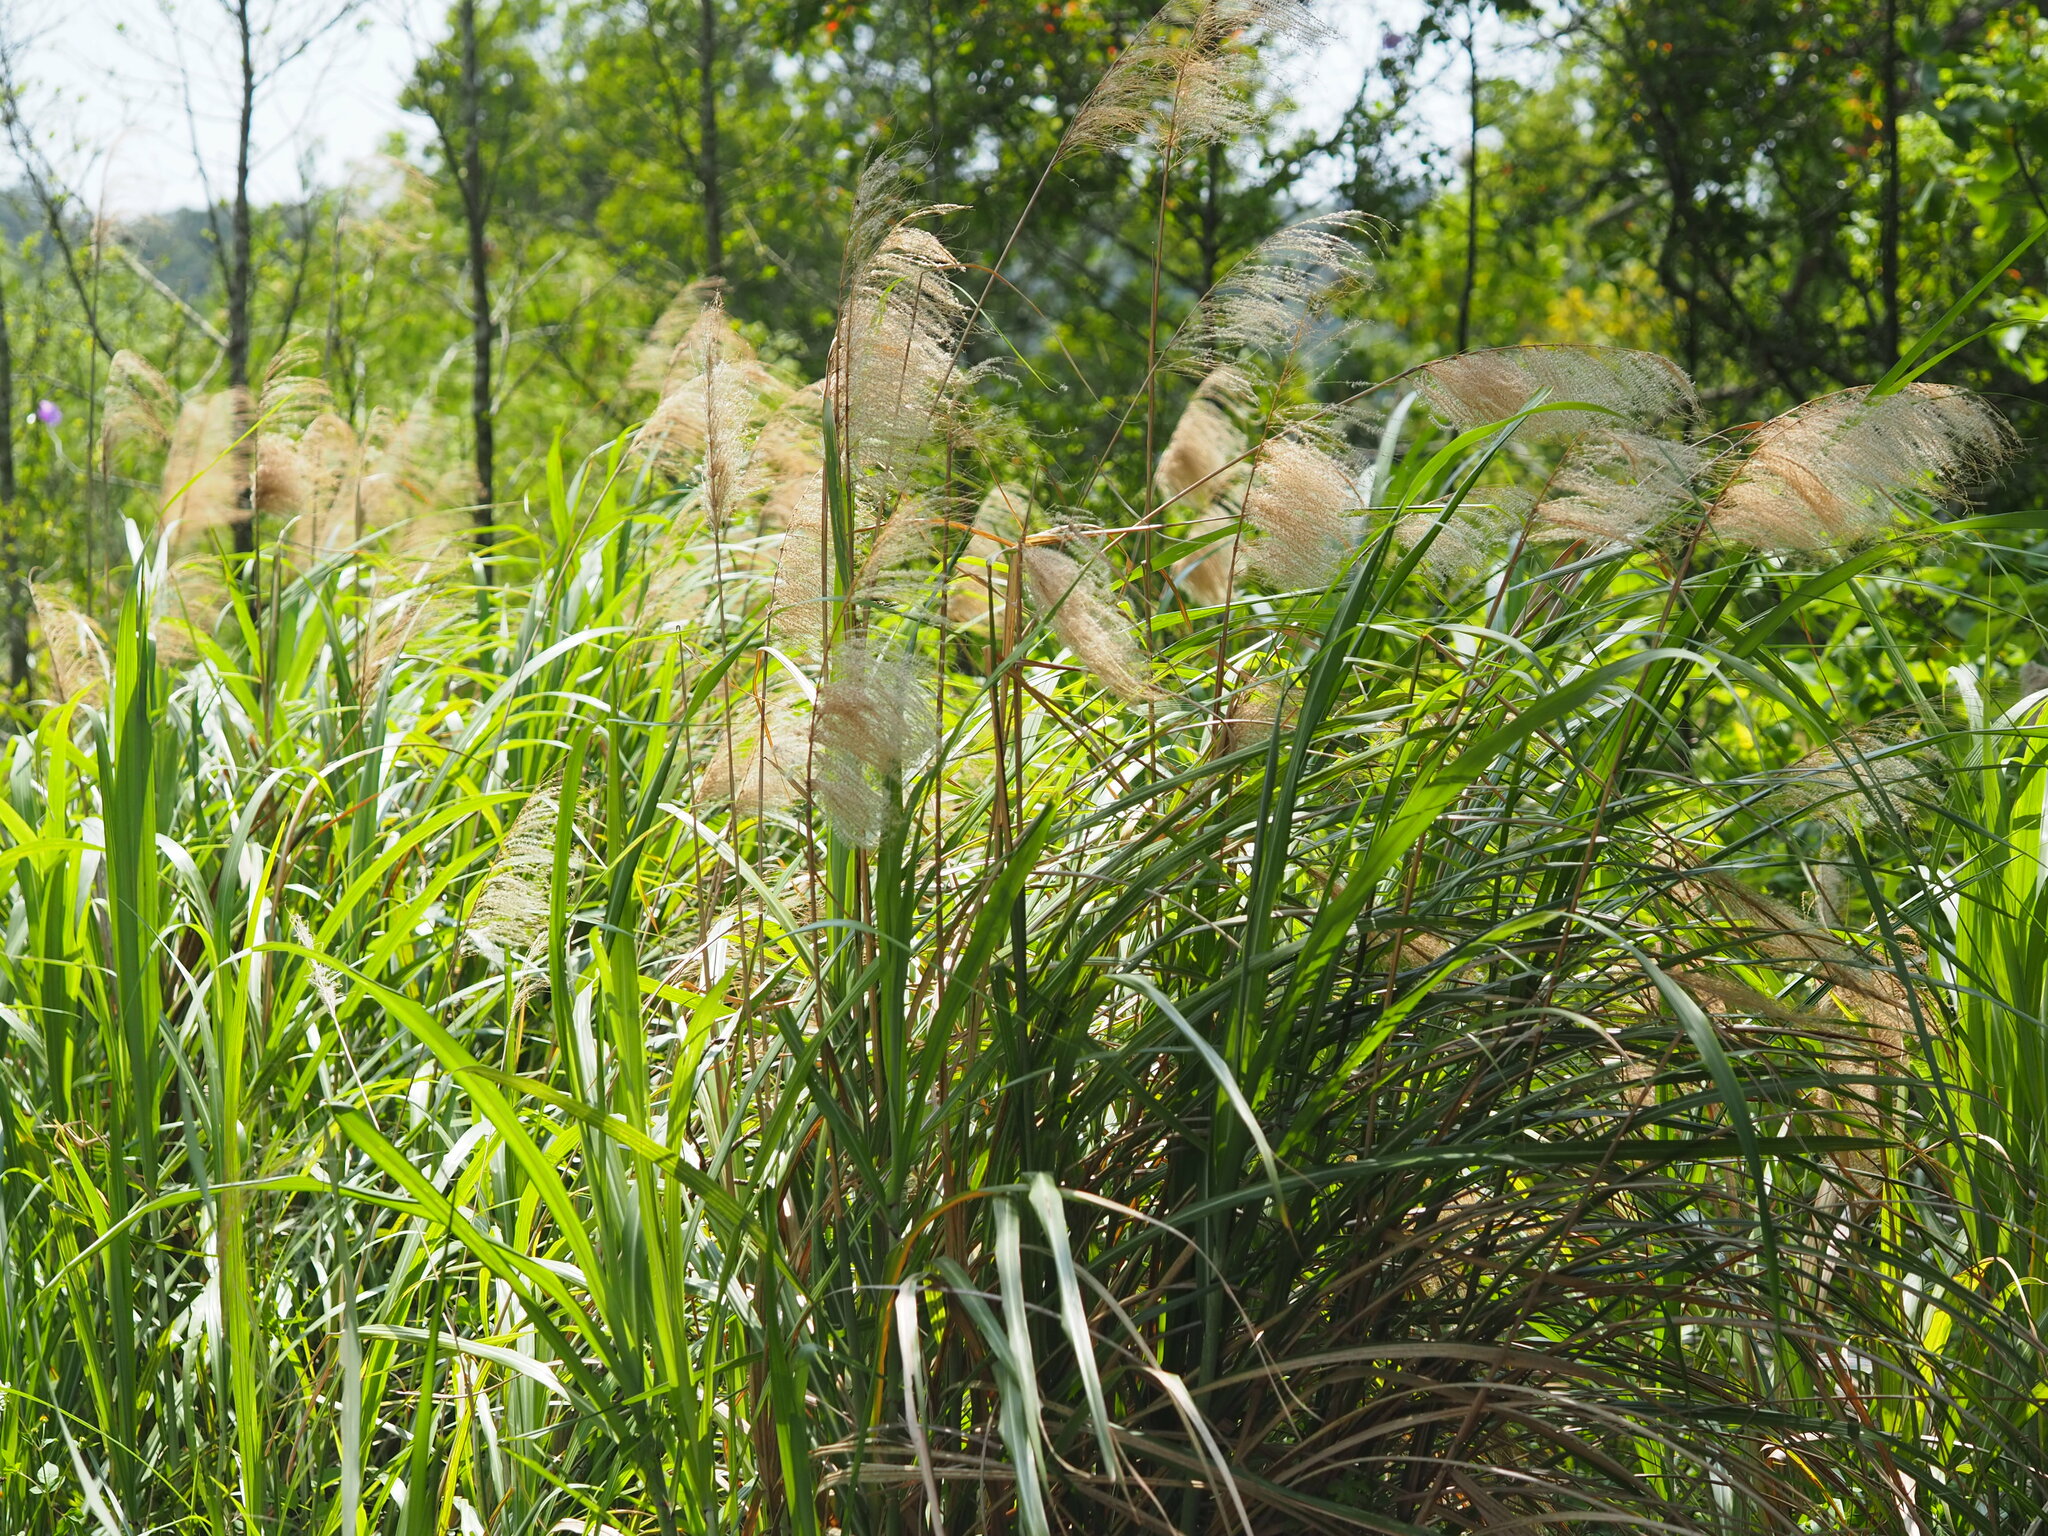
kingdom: Plantae
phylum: Tracheophyta
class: Liliopsida
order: Poales
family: Poaceae
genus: Miscanthus
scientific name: Miscanthus sinensis
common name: Chinese silvergrass
